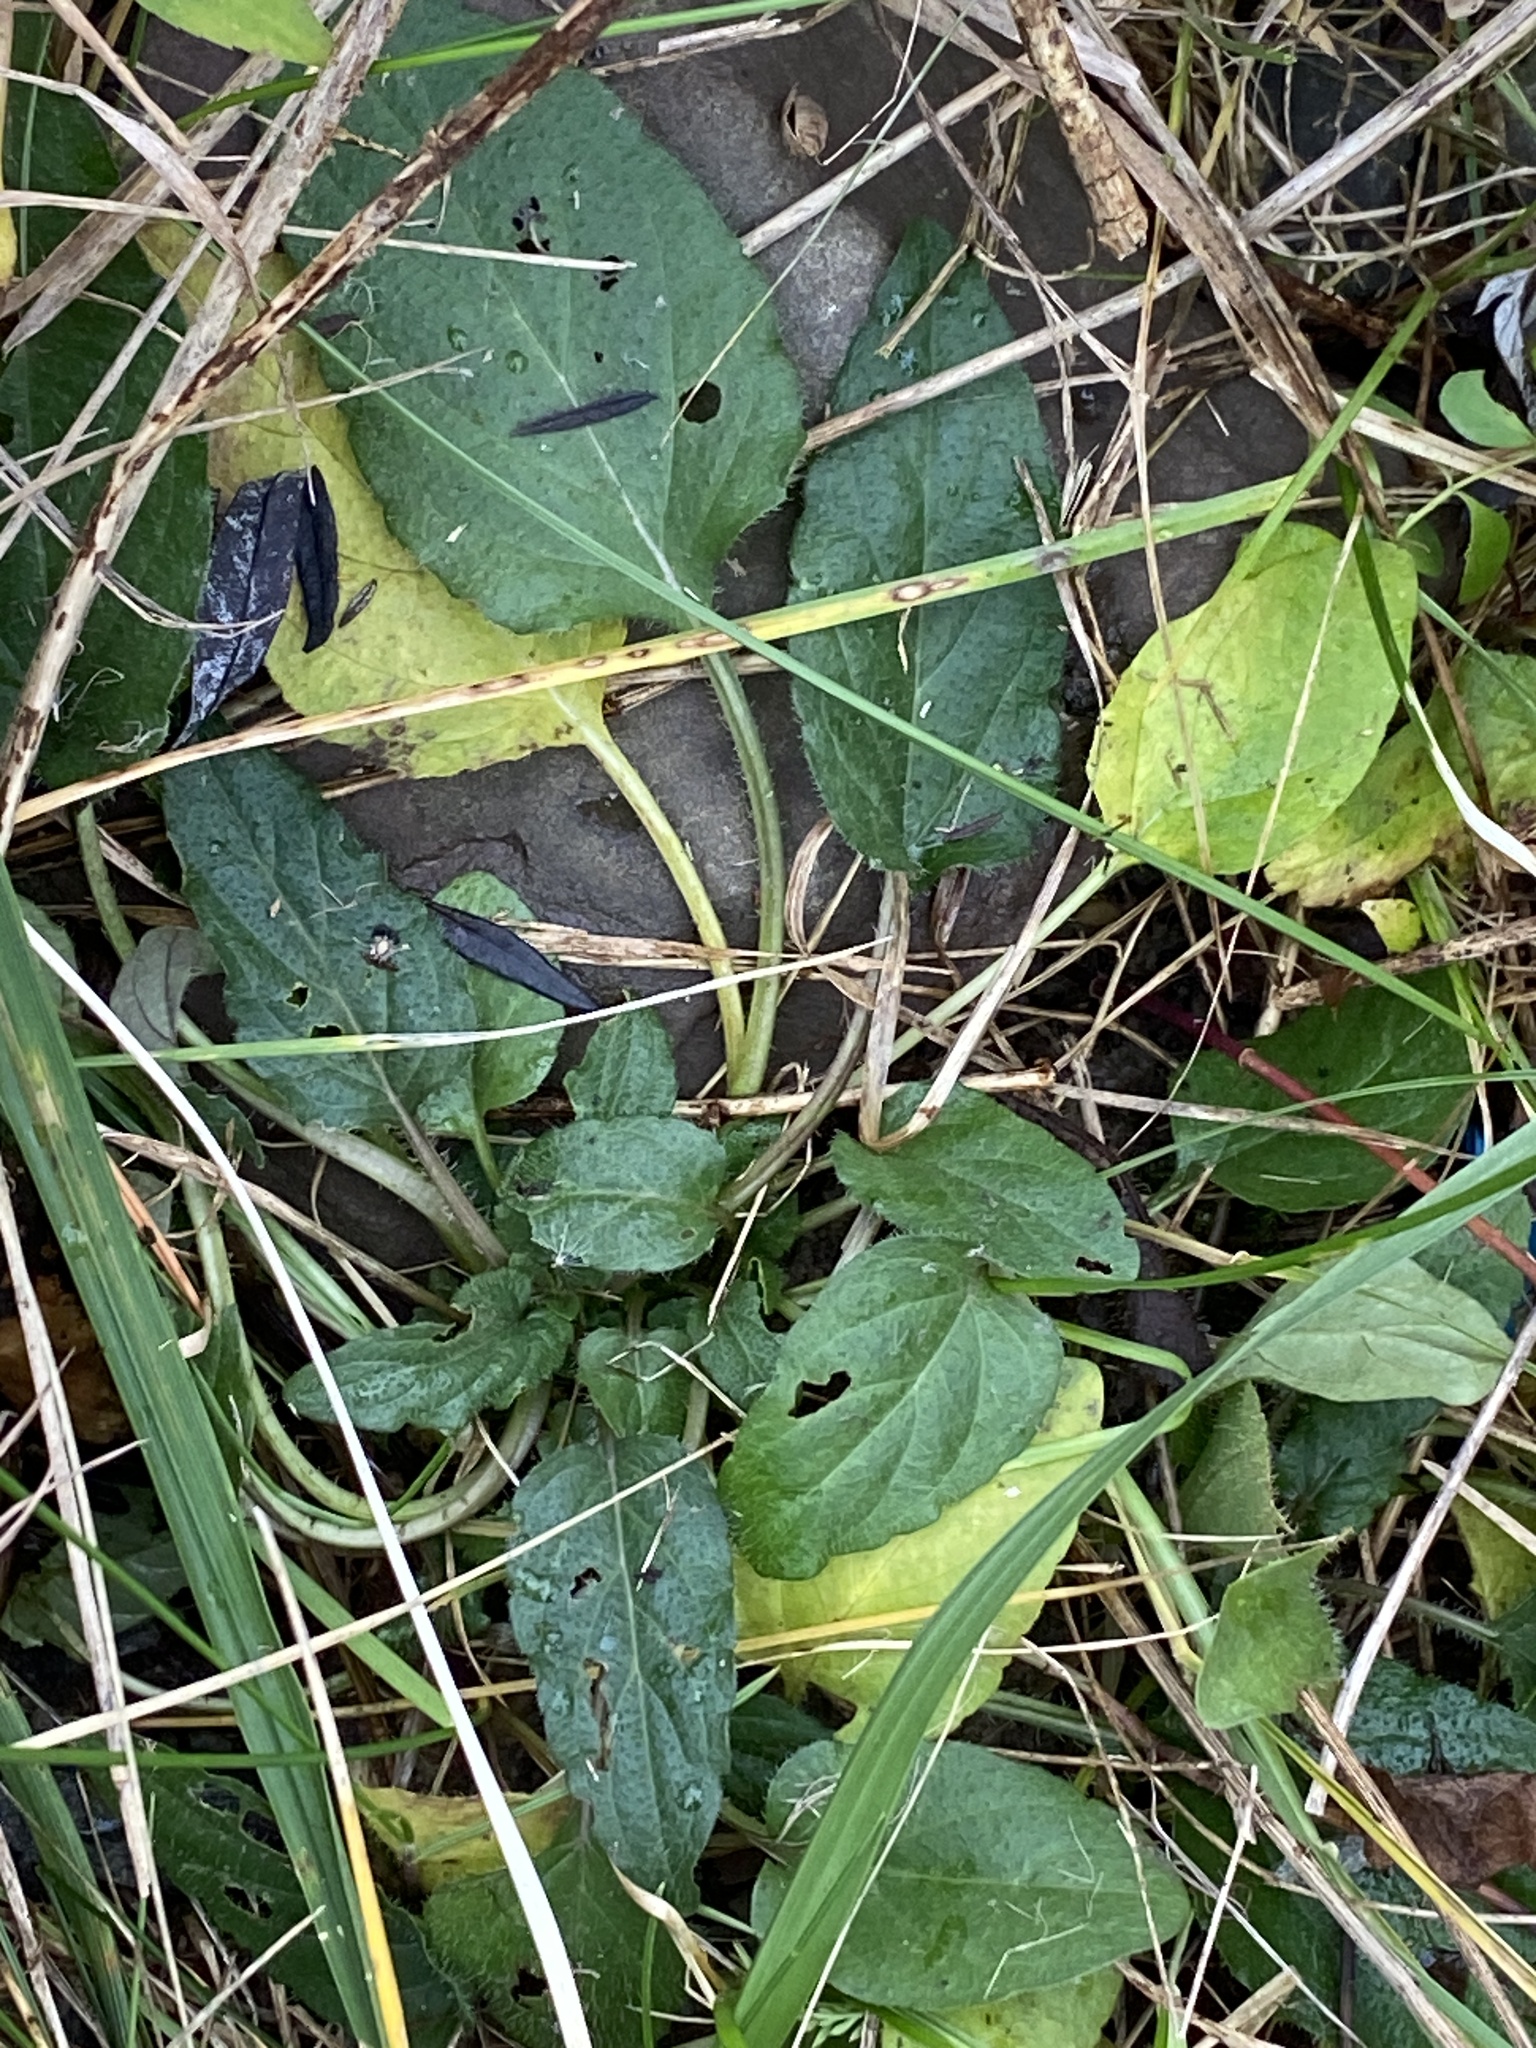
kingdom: Plantae
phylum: Tracheophyta
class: Magnoliopsida
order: Lamiales
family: Lamiaceae
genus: Prunella
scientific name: Prunella vulgaris
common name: Heal-all
